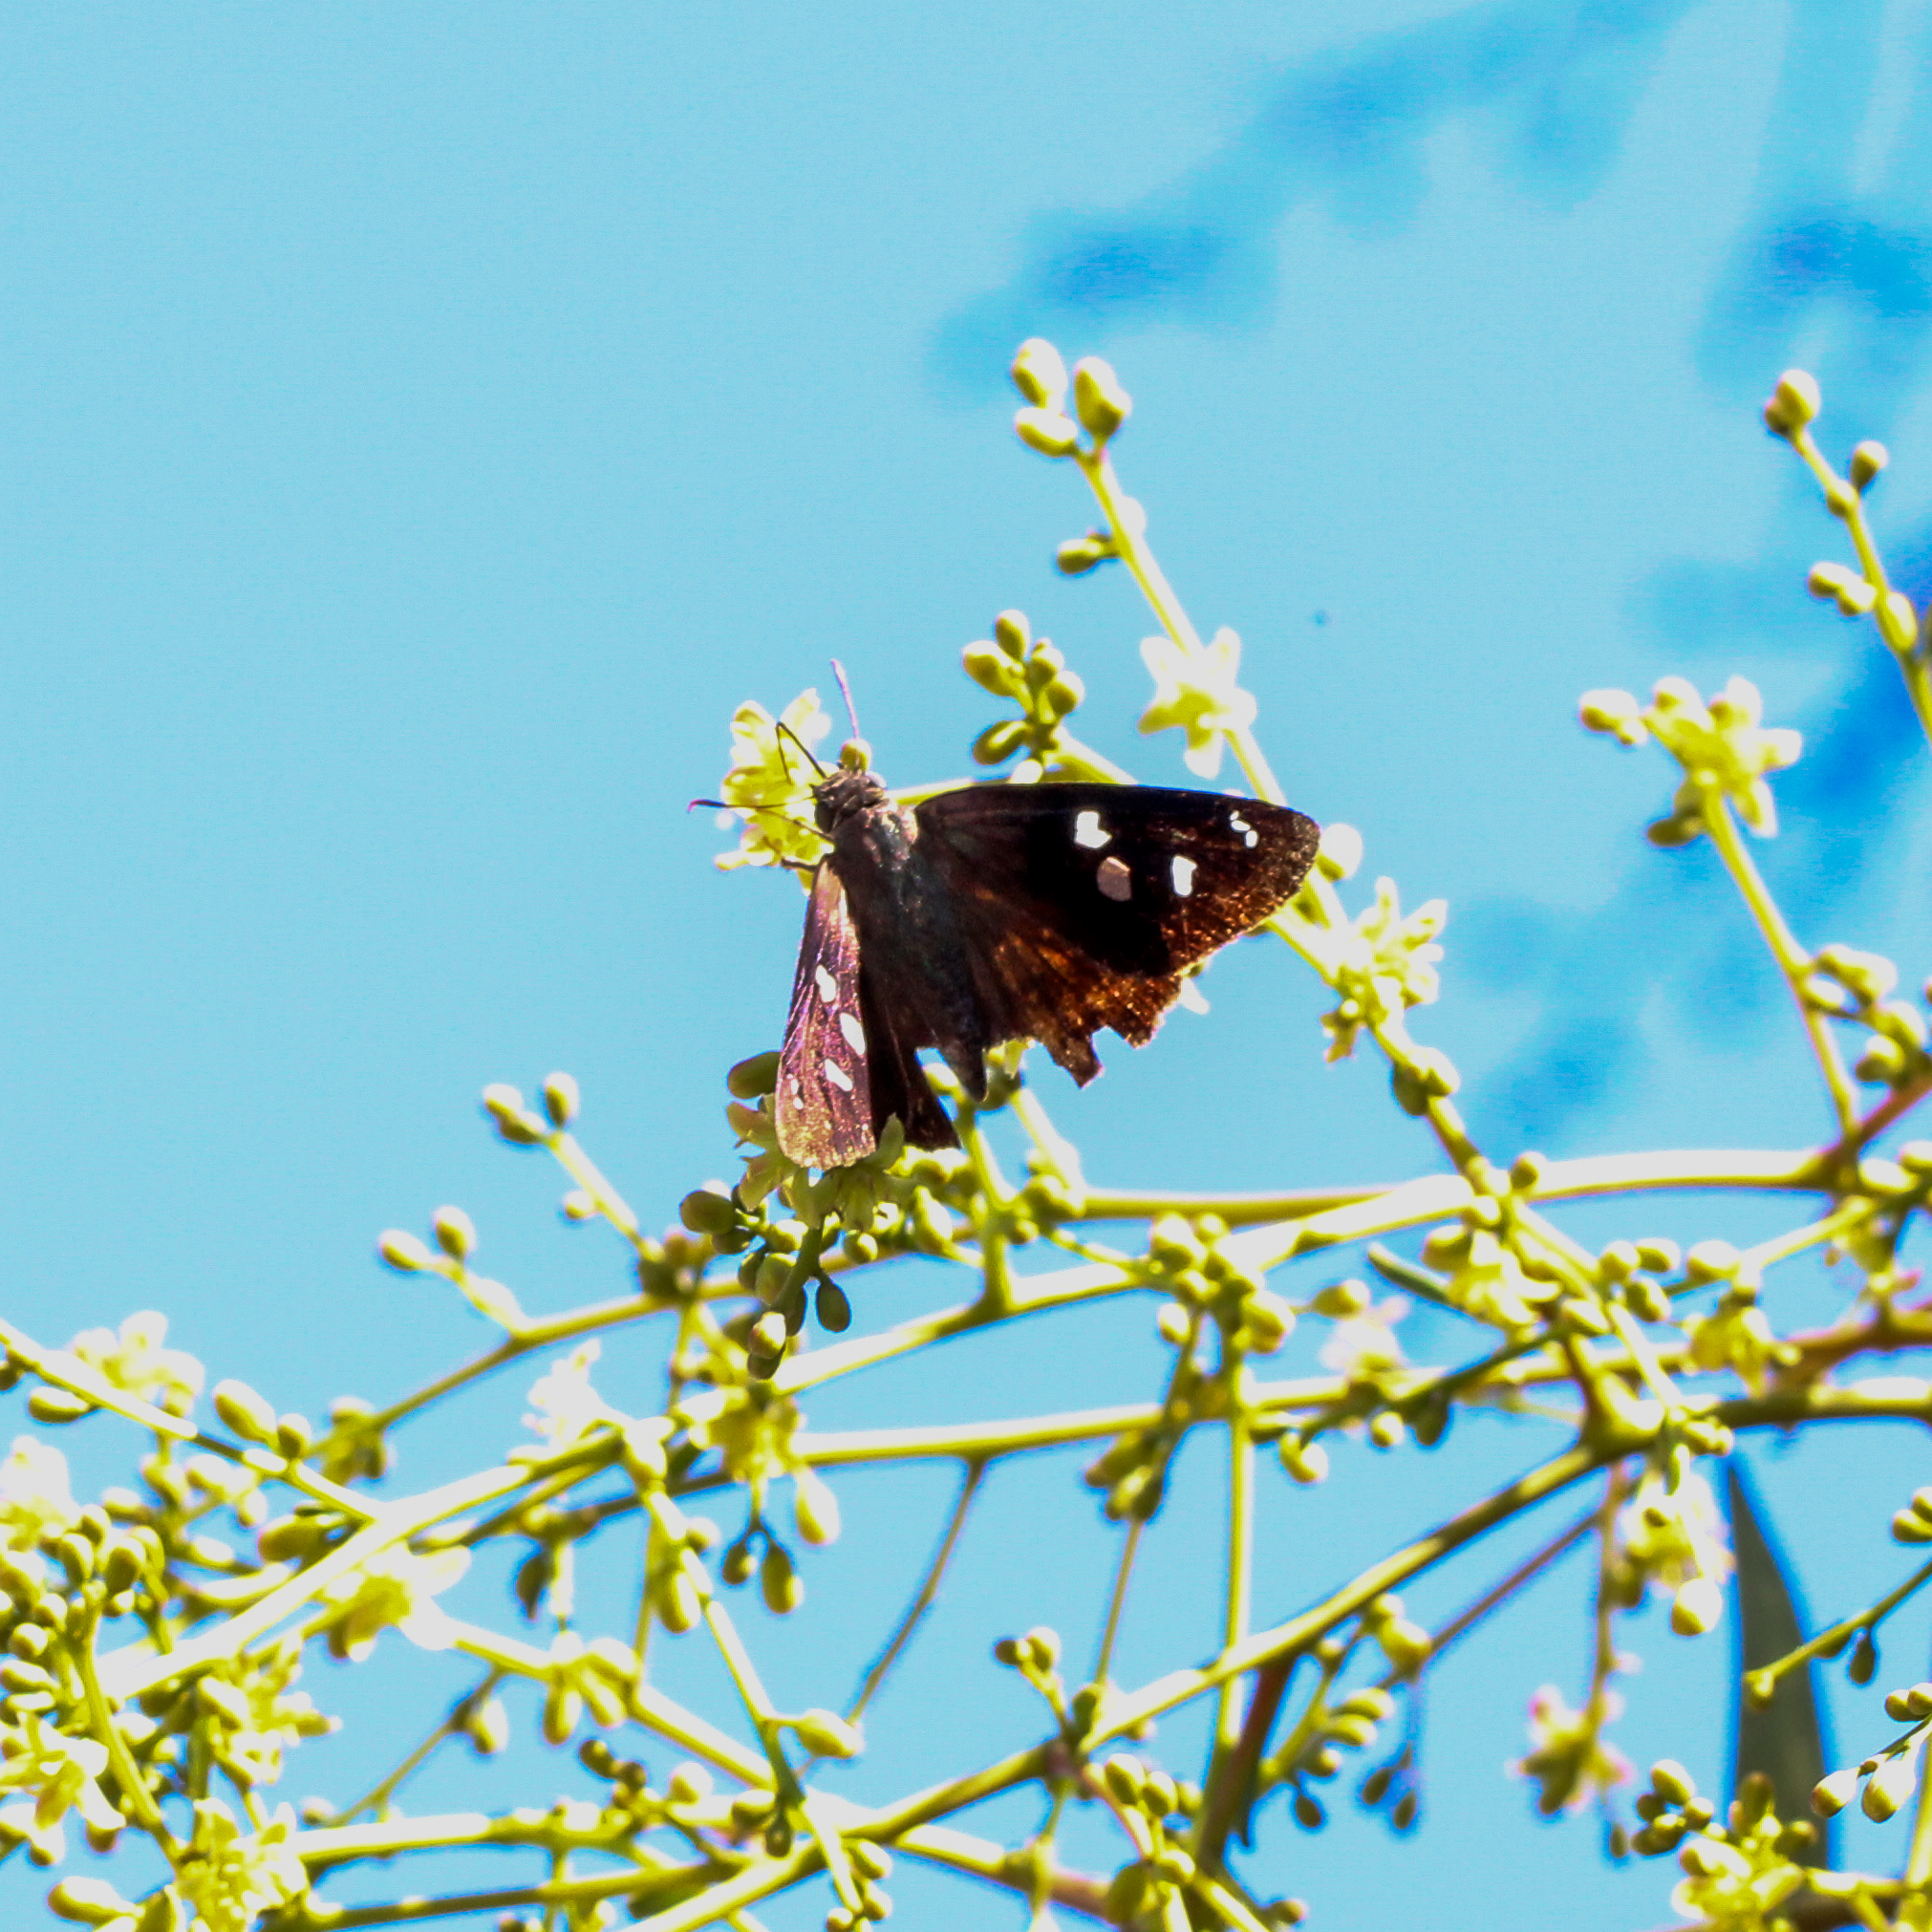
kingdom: Animalia
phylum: Arthropoda
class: Insecta
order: Lepidoptera
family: Hesperiidae
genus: Polygonus
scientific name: Polygonus leo
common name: Hammoch skipper
